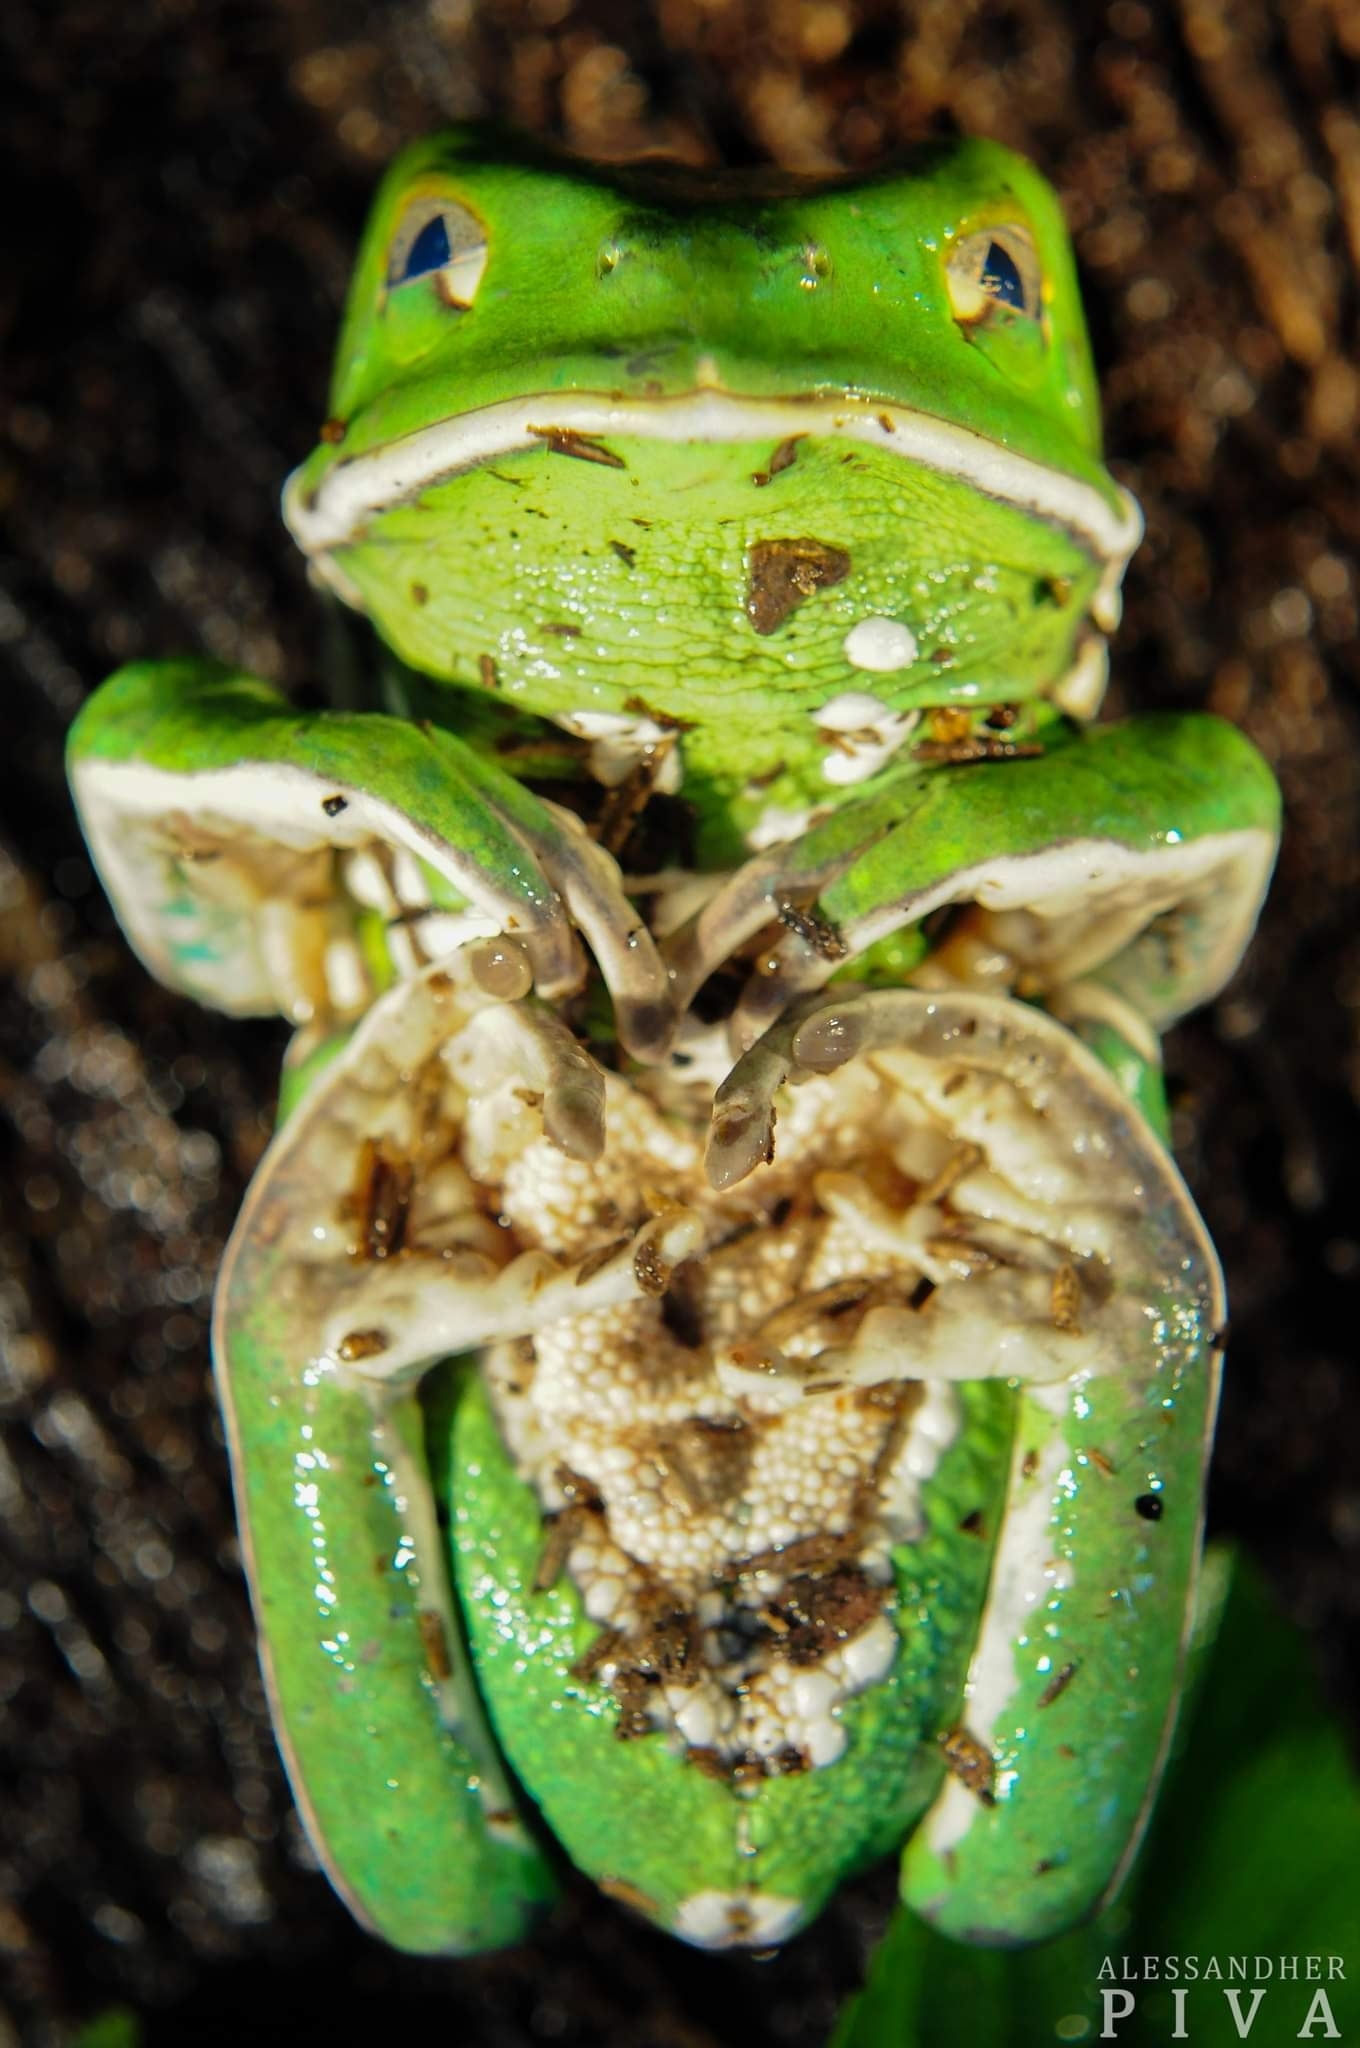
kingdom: Animalia
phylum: Chordata
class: Amphibia
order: Anura
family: Phyllomedusidae
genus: Phyllomedusa
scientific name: Phyllomedusa sauvagii
